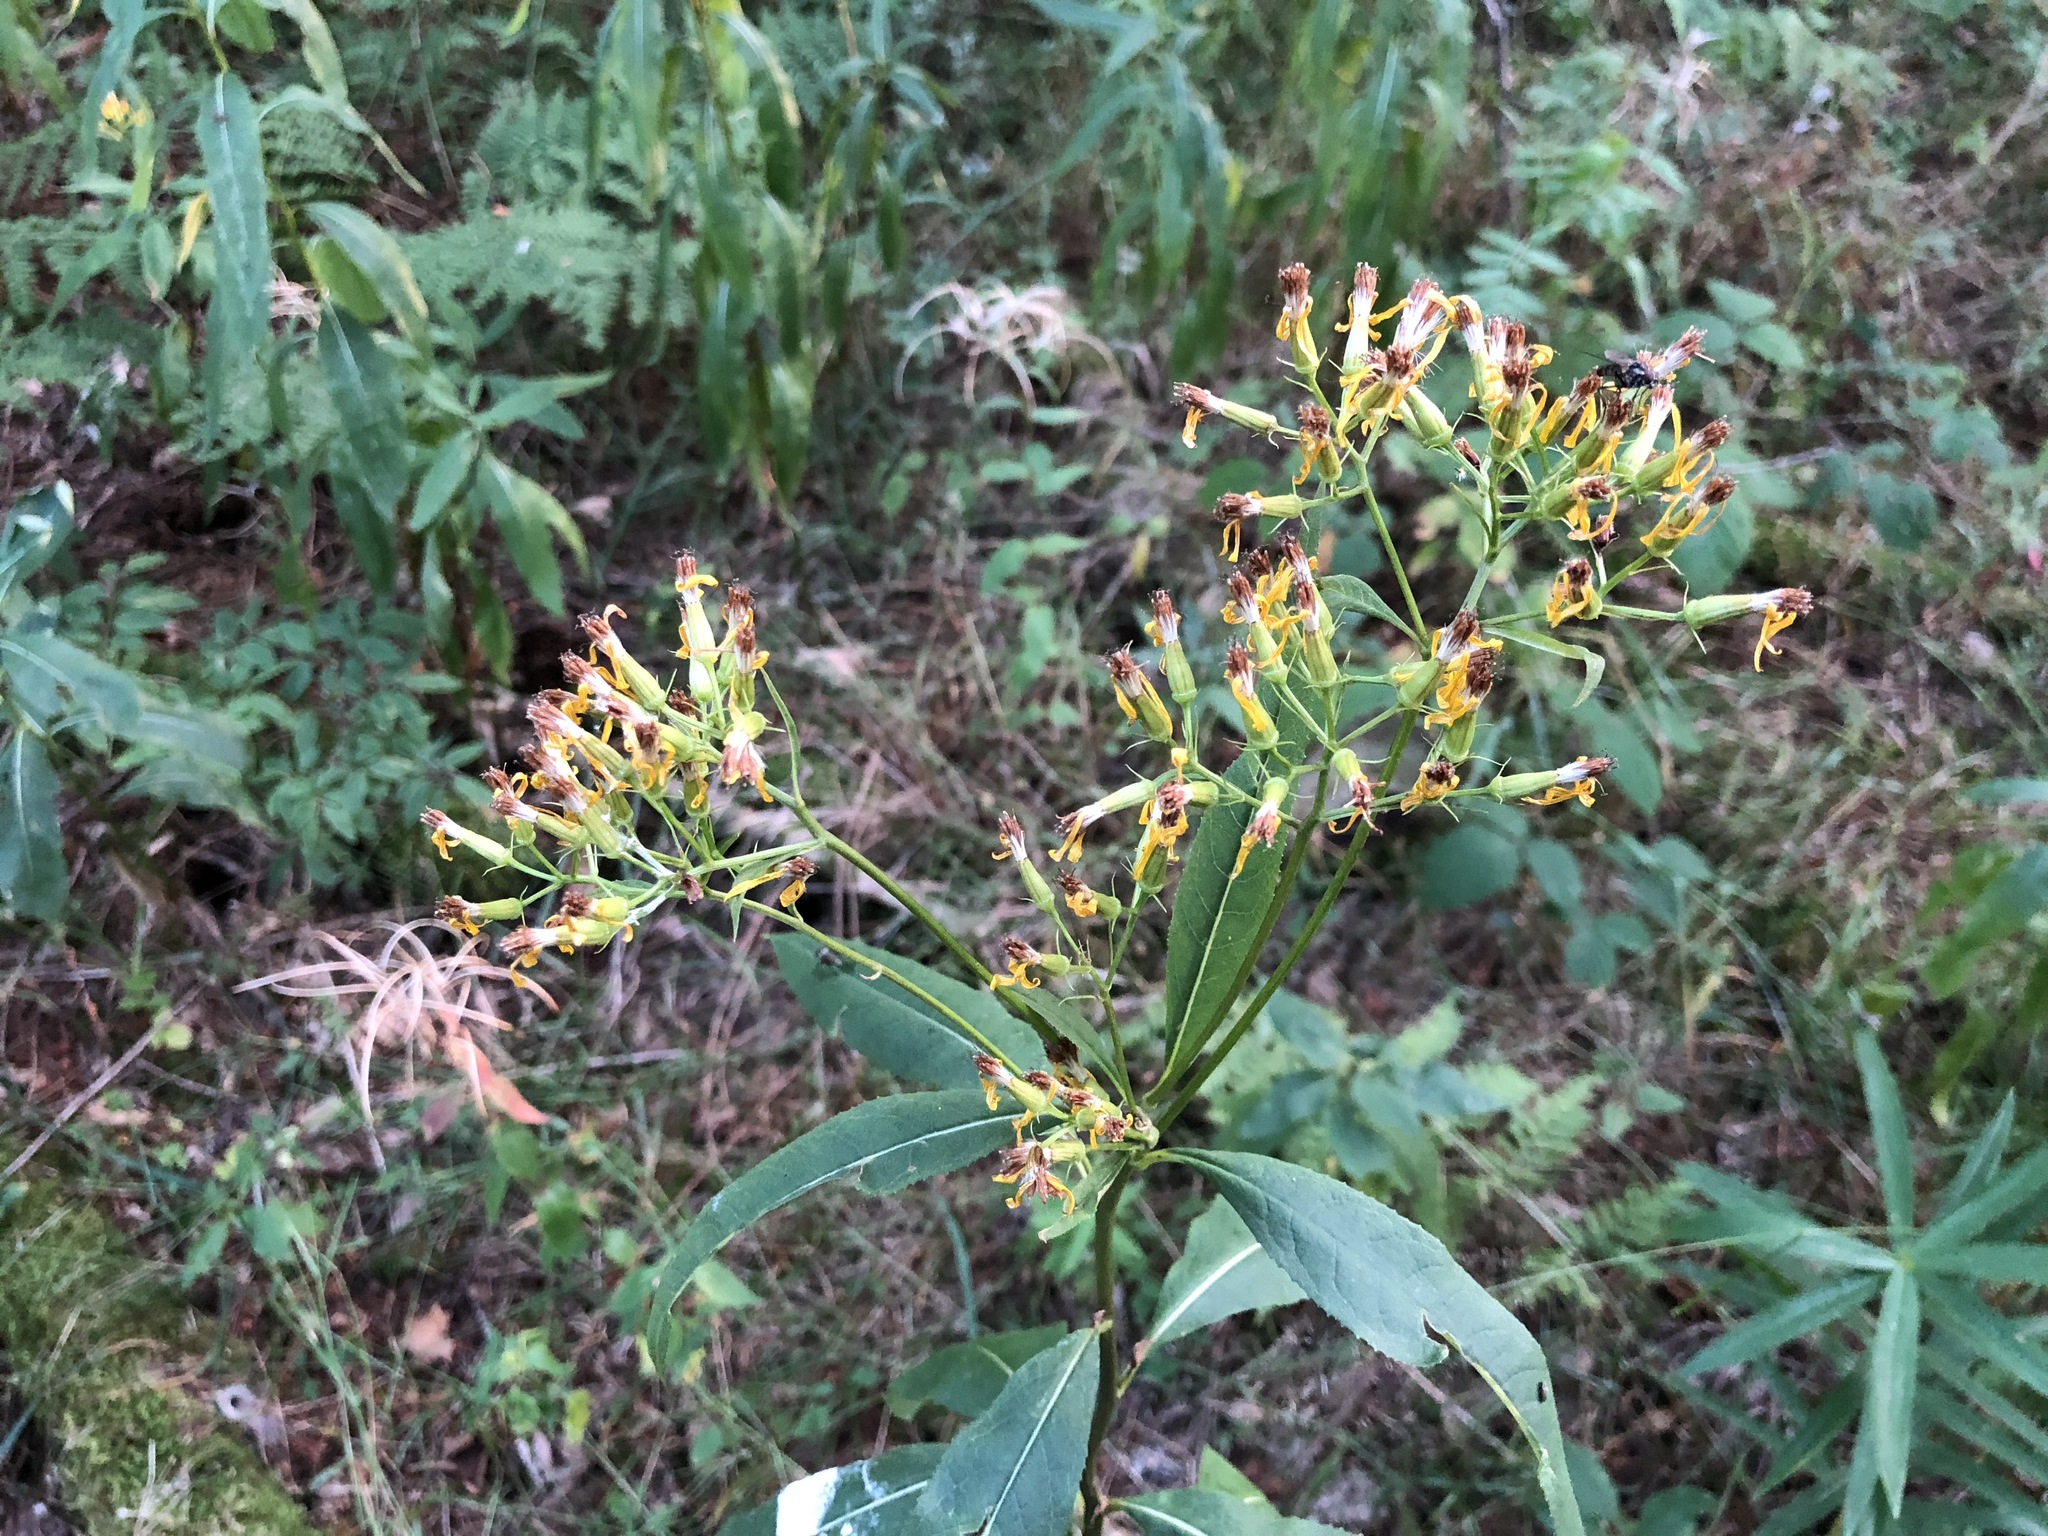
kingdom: Plantae
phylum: Tracheophyta
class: Magnoliopsida
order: Asterales
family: Asteraceae
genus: Senecio
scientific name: Senecio ovatus
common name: Wood ragwort
